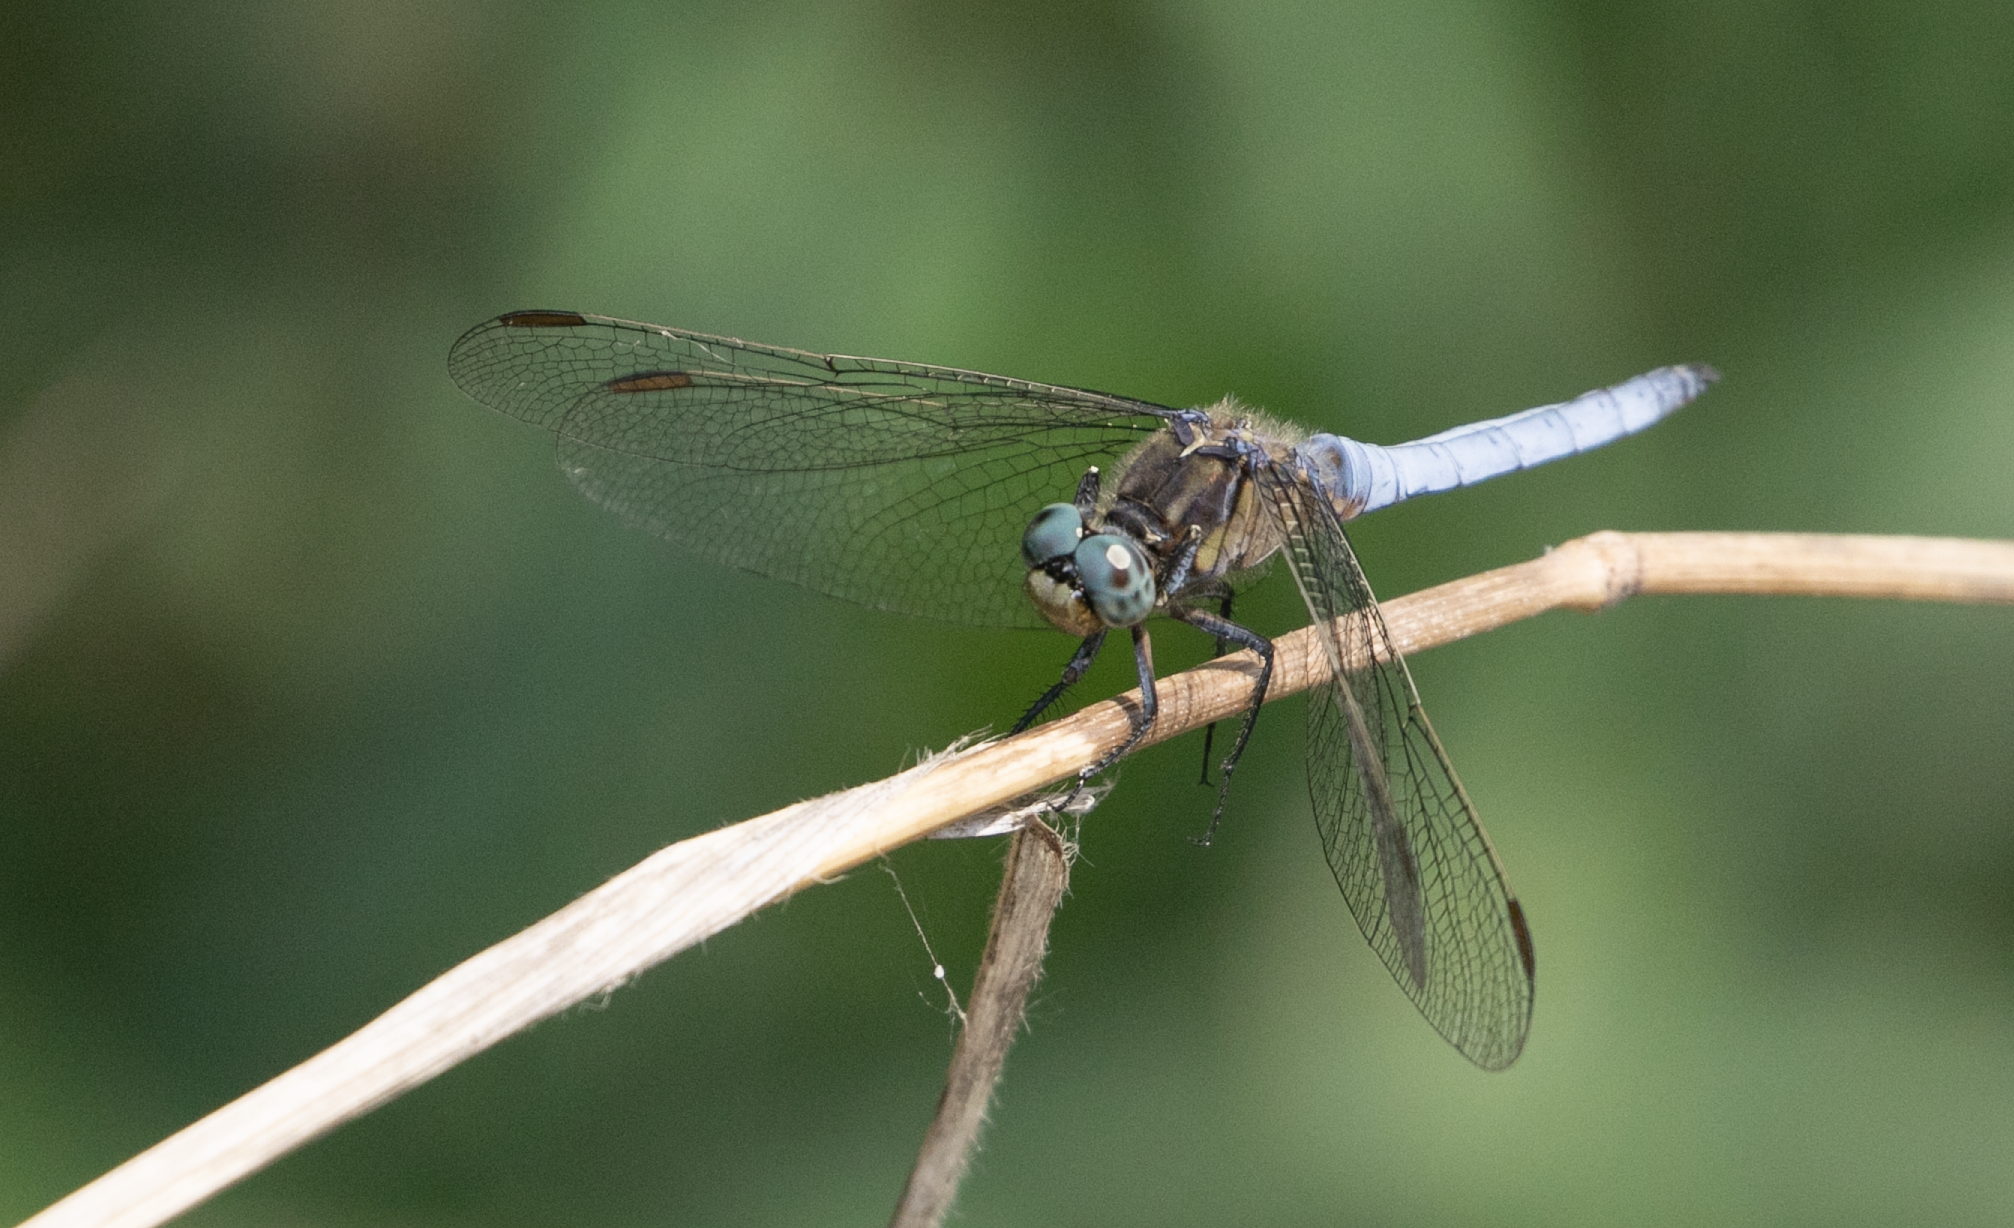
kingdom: Animalia
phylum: Arthropoda
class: Insecta
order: Odonata
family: Libellulidae
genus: Orthetrum
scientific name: Orthetrum coerulescens
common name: Keeled skimmer
